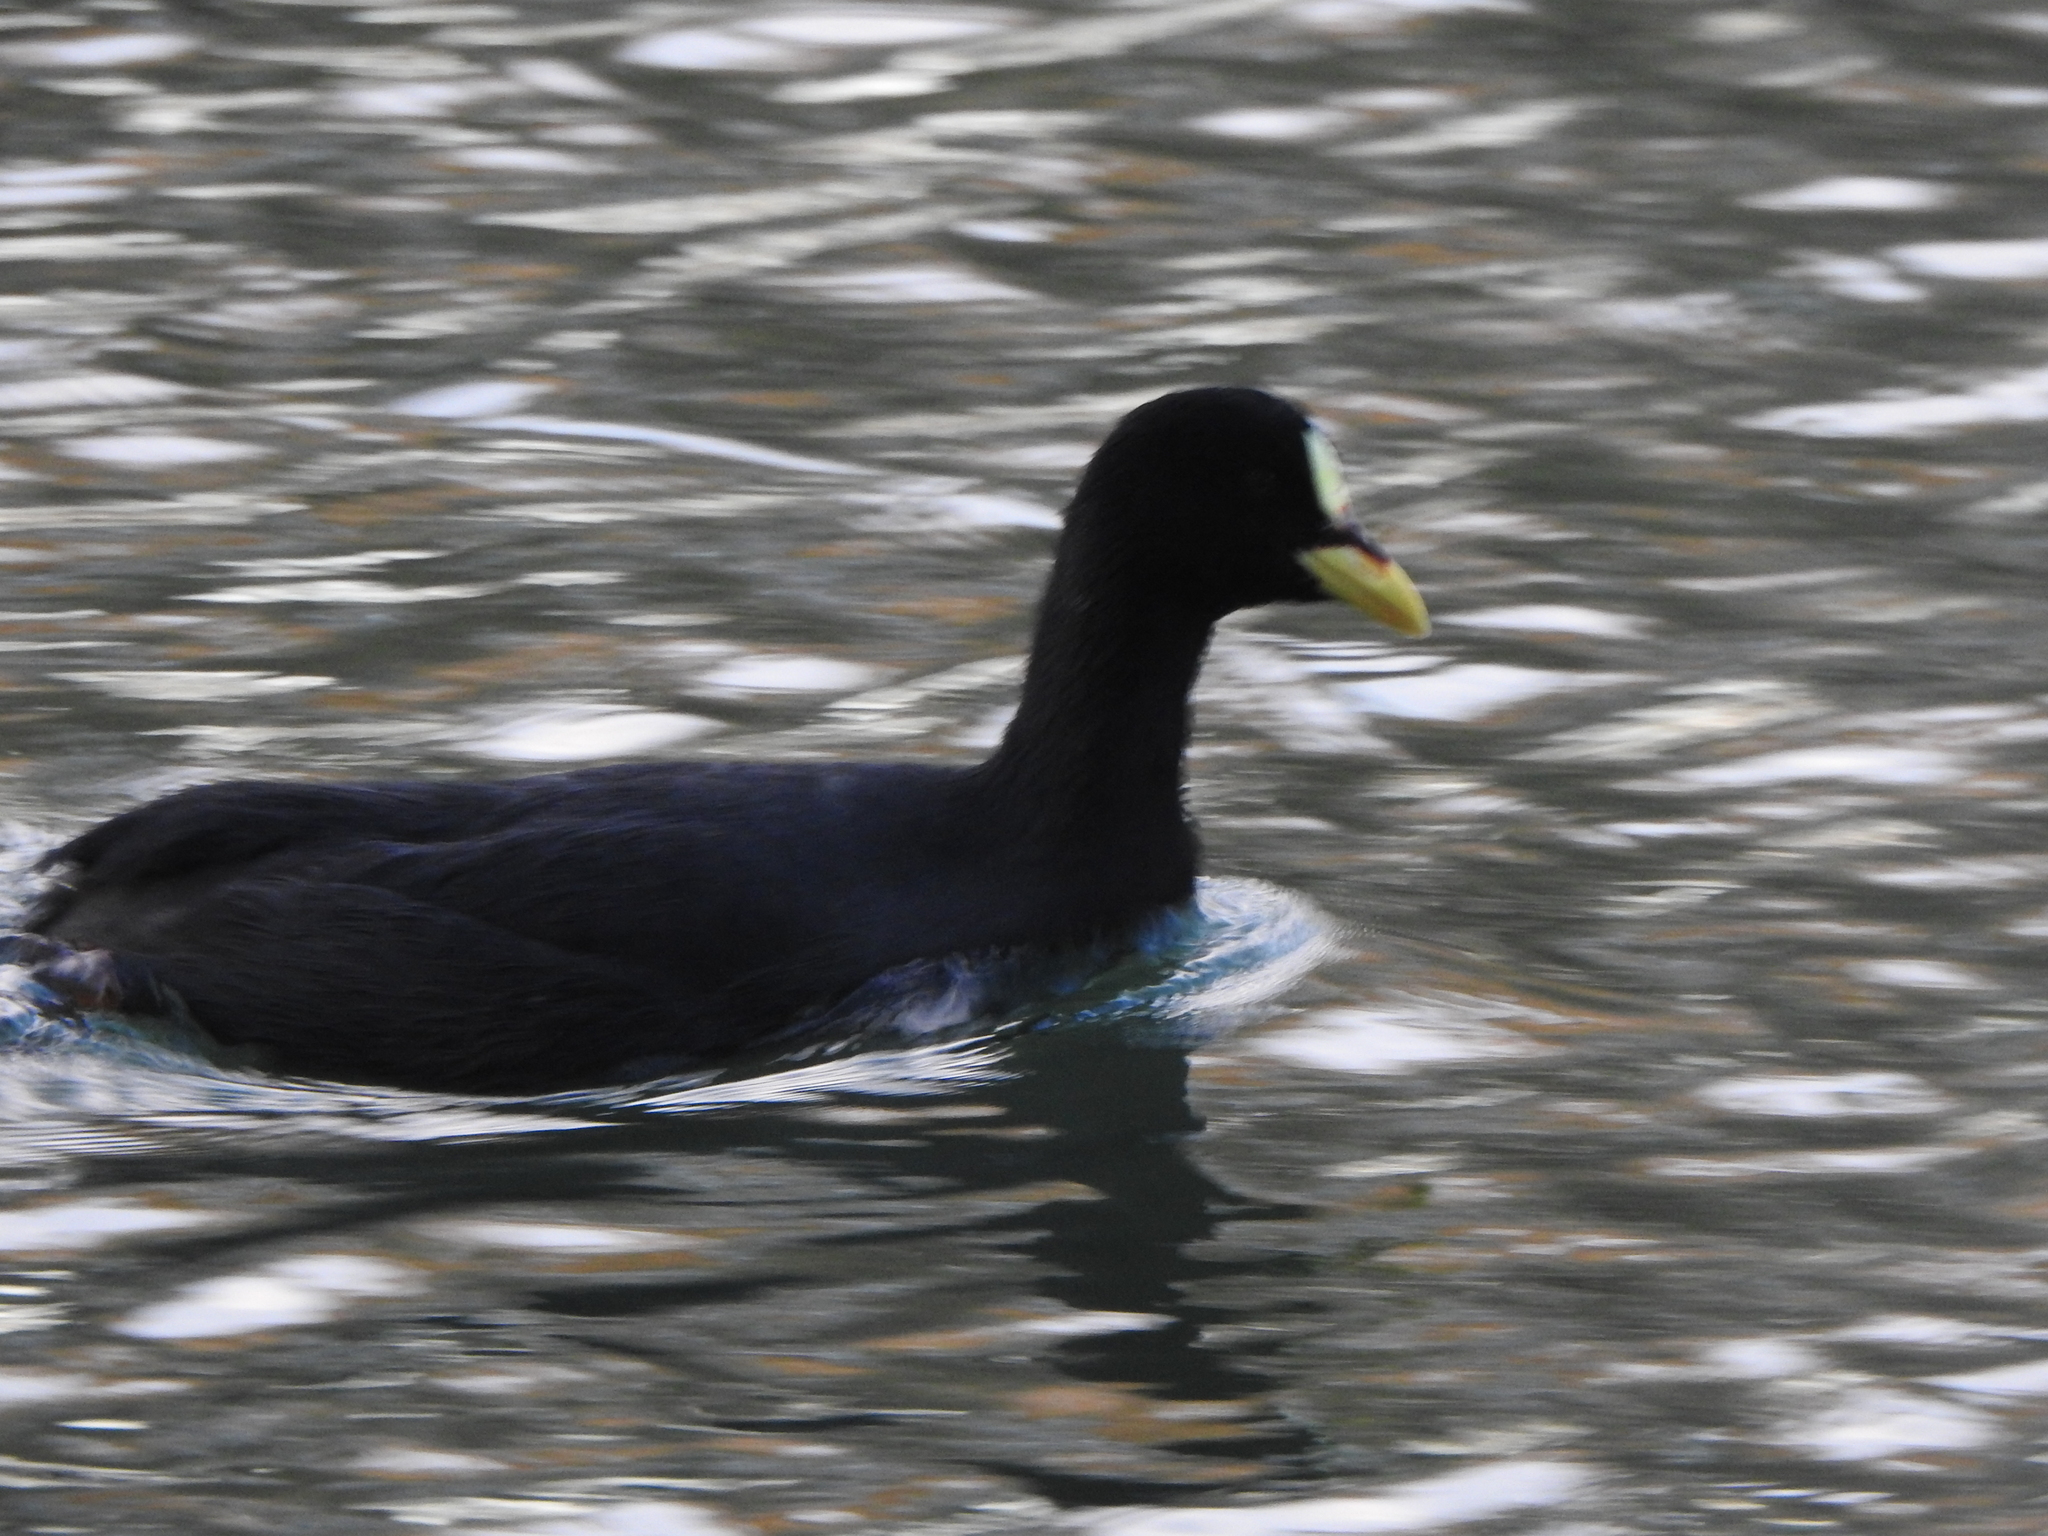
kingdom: Animalia
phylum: Chordata
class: Aves
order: Gruiformes
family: Rallidae
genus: Fulica
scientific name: Fulica armillata
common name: Red-gartered coot
